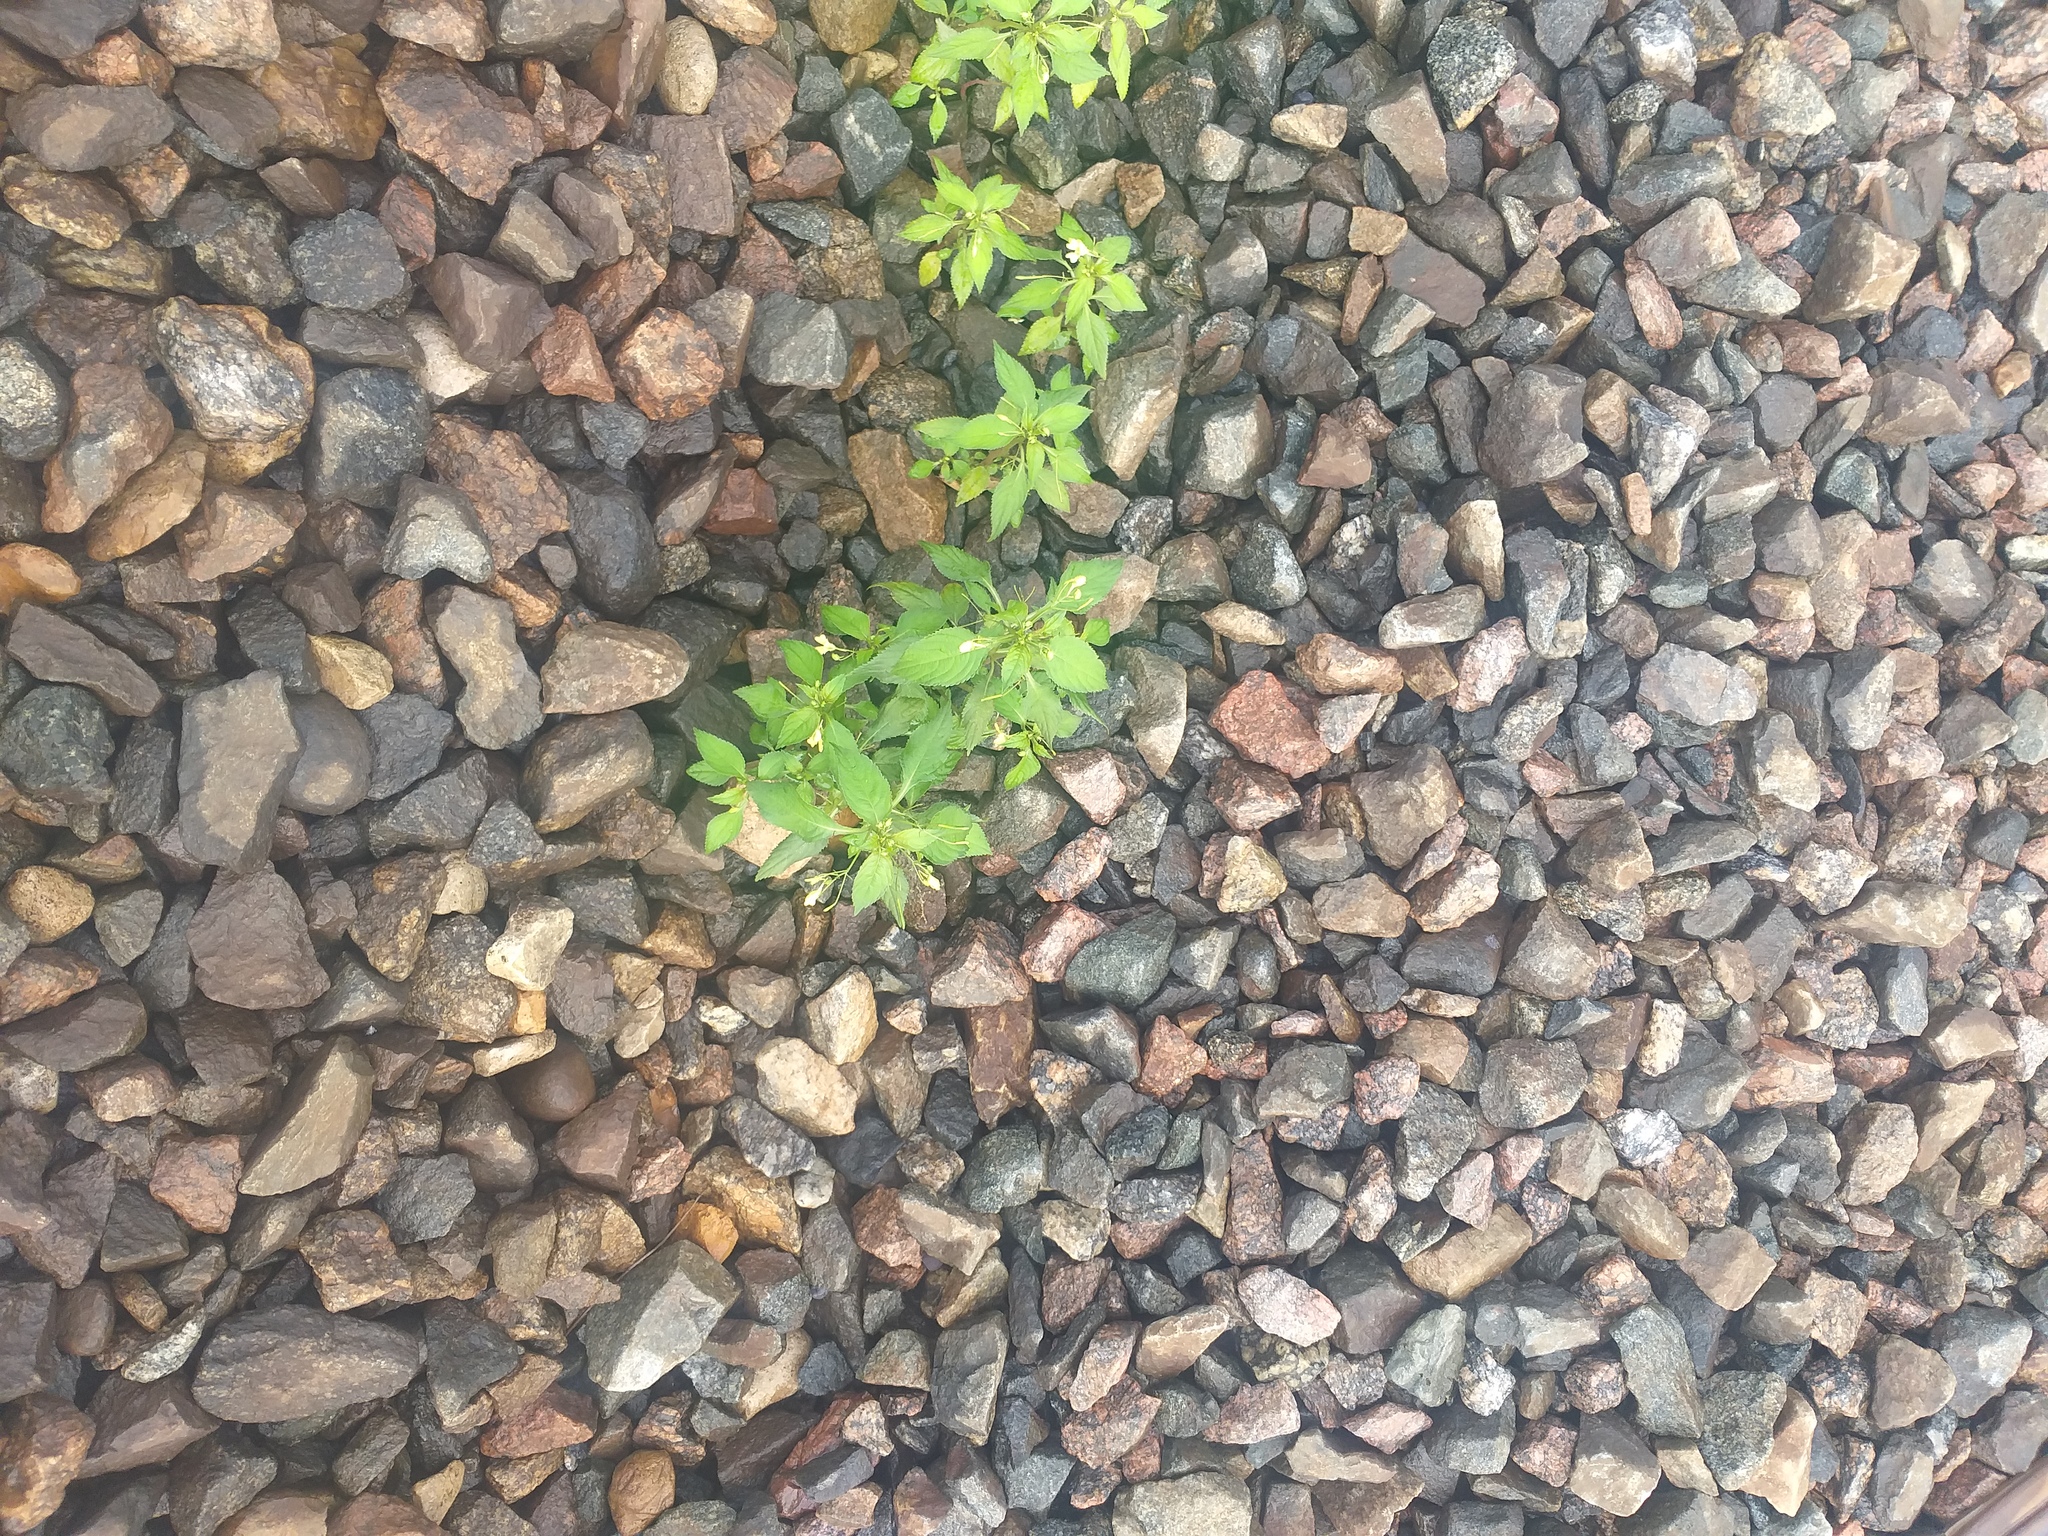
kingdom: Plantae
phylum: Tracheophyta
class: Magnoliopsida
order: Ericales
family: Balsaminaceae
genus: Impatiens
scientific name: Impatiens parviflora
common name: Small balsam
